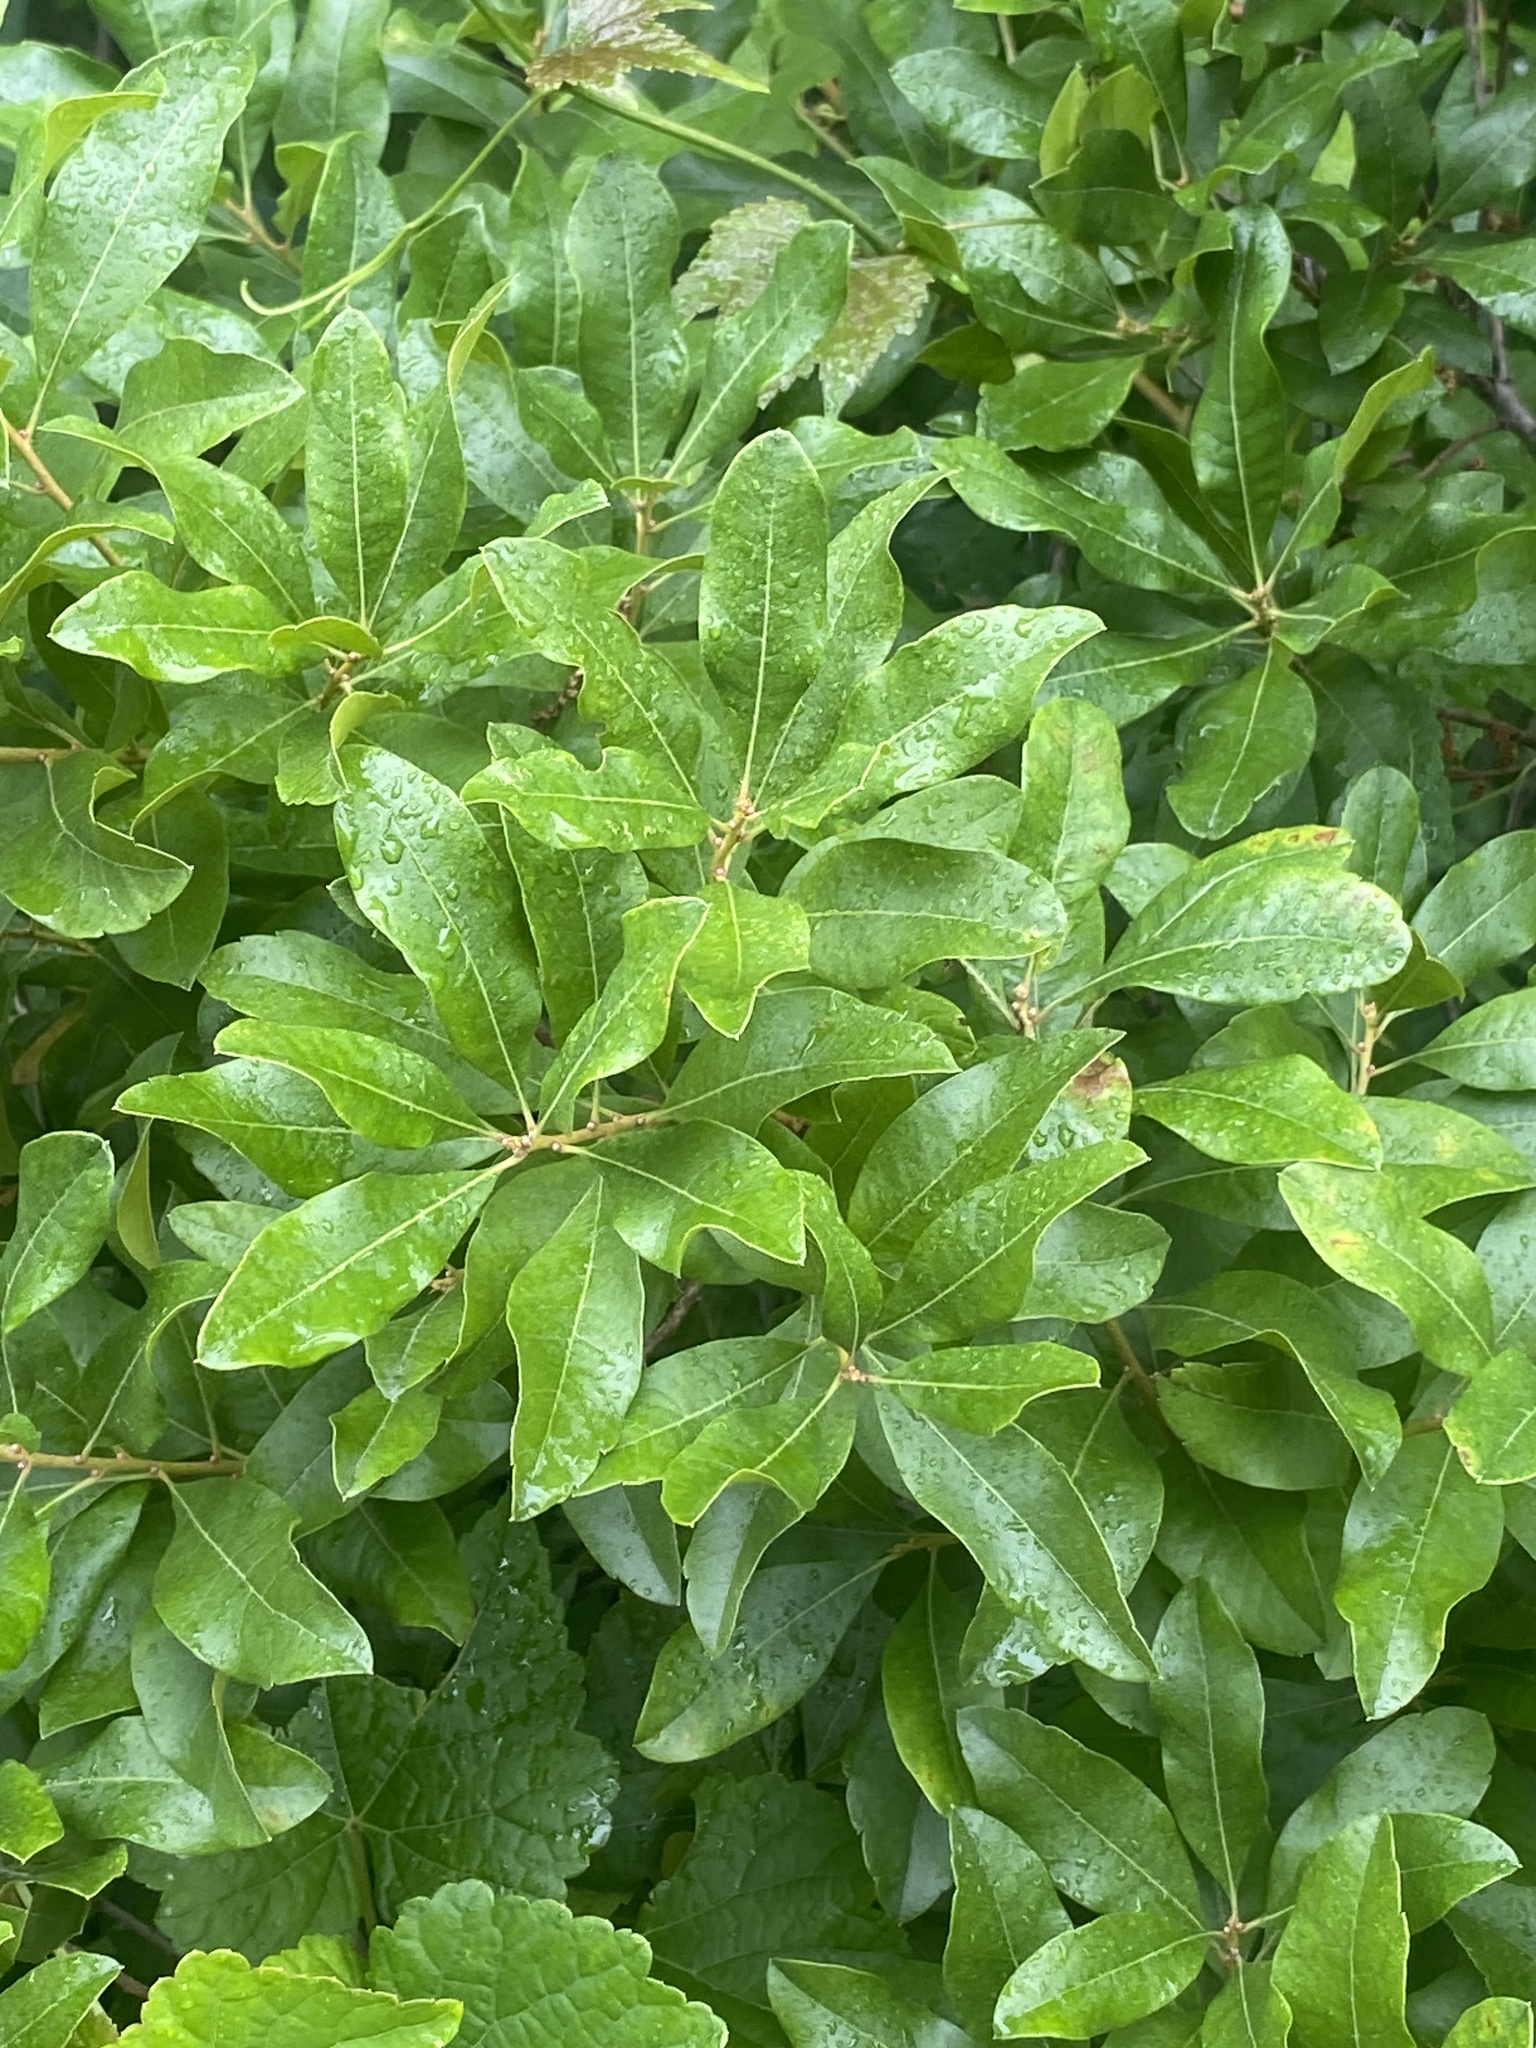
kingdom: Plantae
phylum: Tracheophyta
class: Magnoliopsida
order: Fagales
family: Myricaceae
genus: Morella
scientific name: Morella pensylvanica
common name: Northern bayberry
